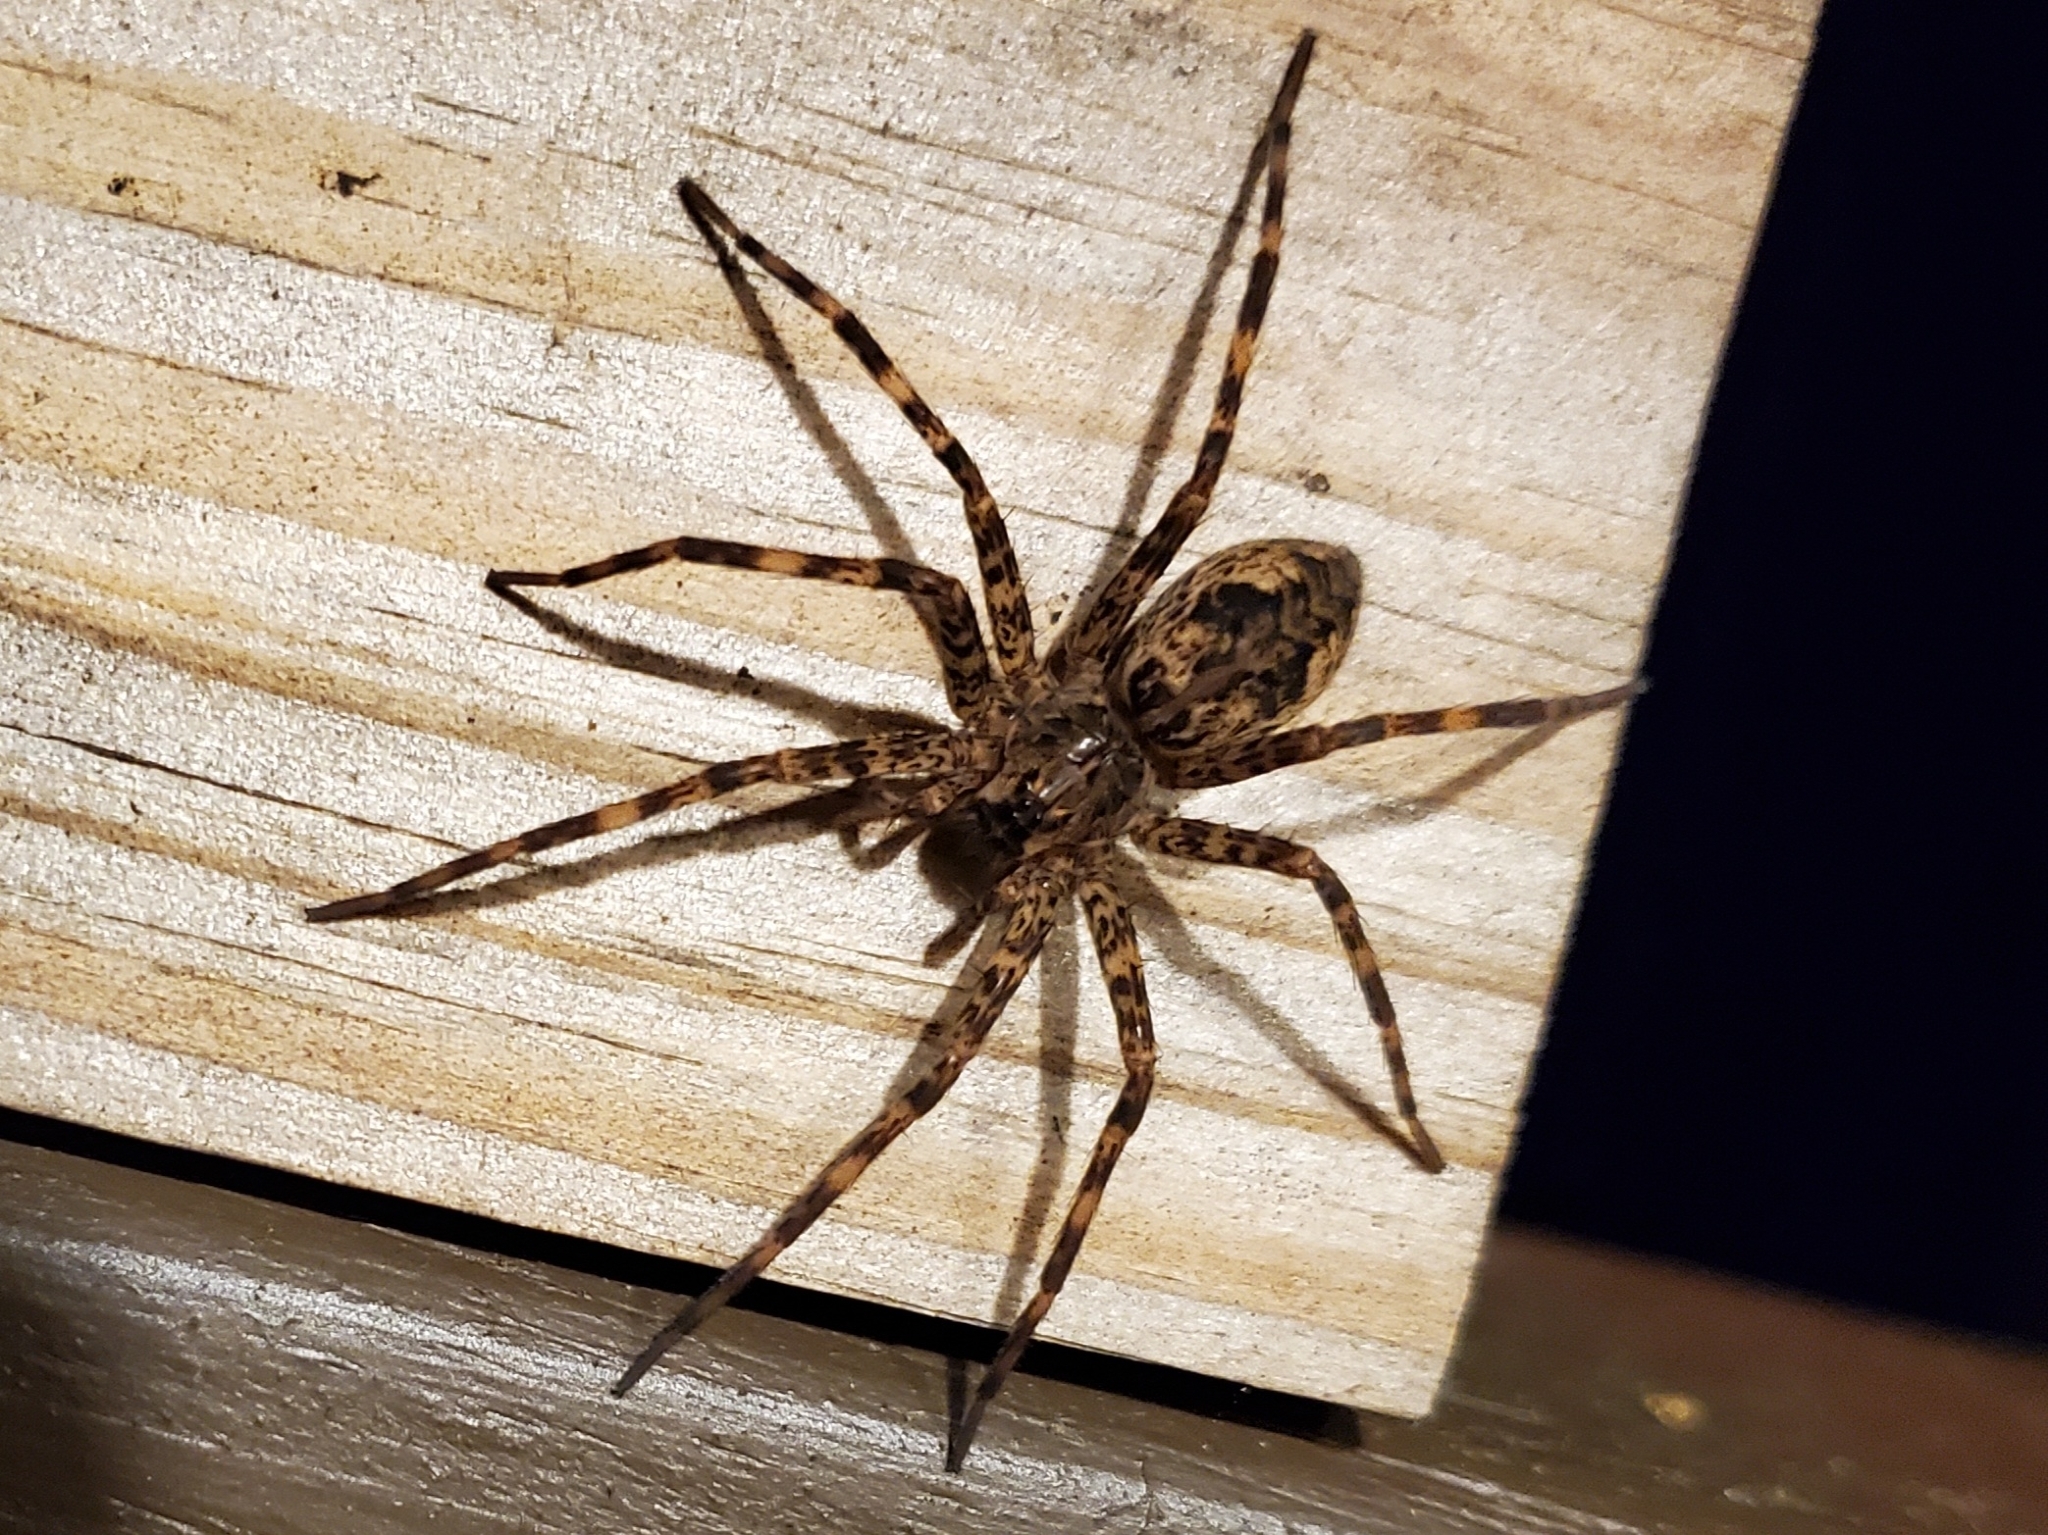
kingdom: Animalia
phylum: Arthropoda
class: Arachnida
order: Araneae
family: Pisauridae
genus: Dolomedes
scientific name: Dolomedes tenebrosus
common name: Dark fishing spider
